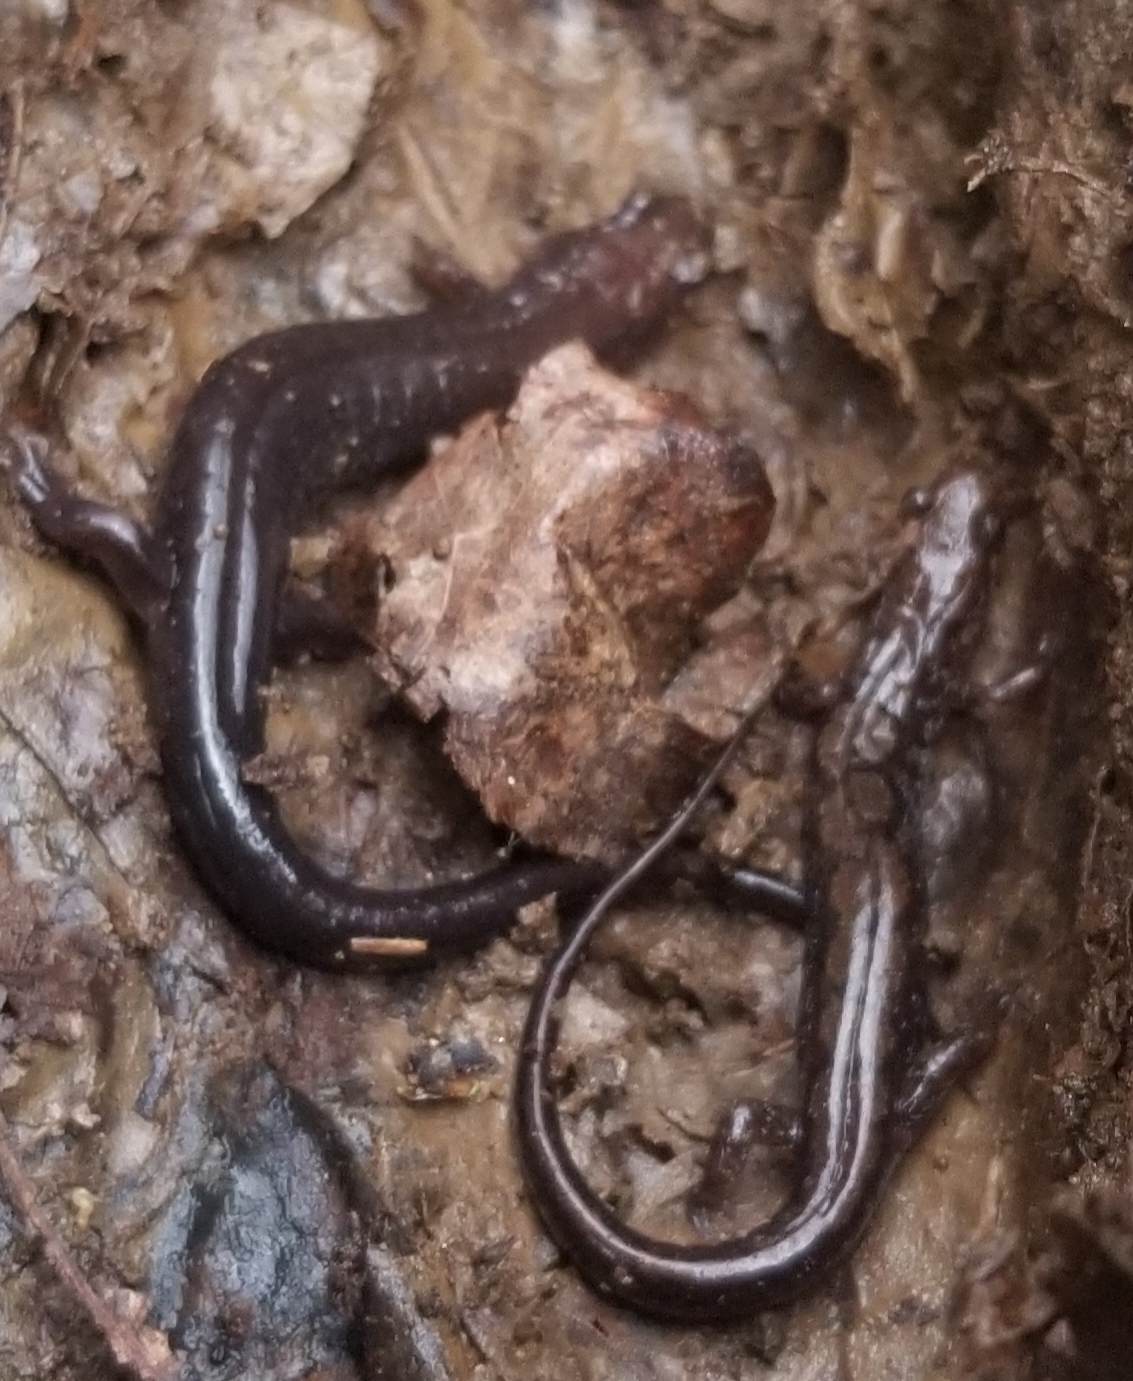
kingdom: Animalia
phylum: Chordata
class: Amphibia
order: Caudata
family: Plethodontidae
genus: Desmognathus
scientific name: Desmognathus carolinensis
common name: Carolina mountain dusky salamander
